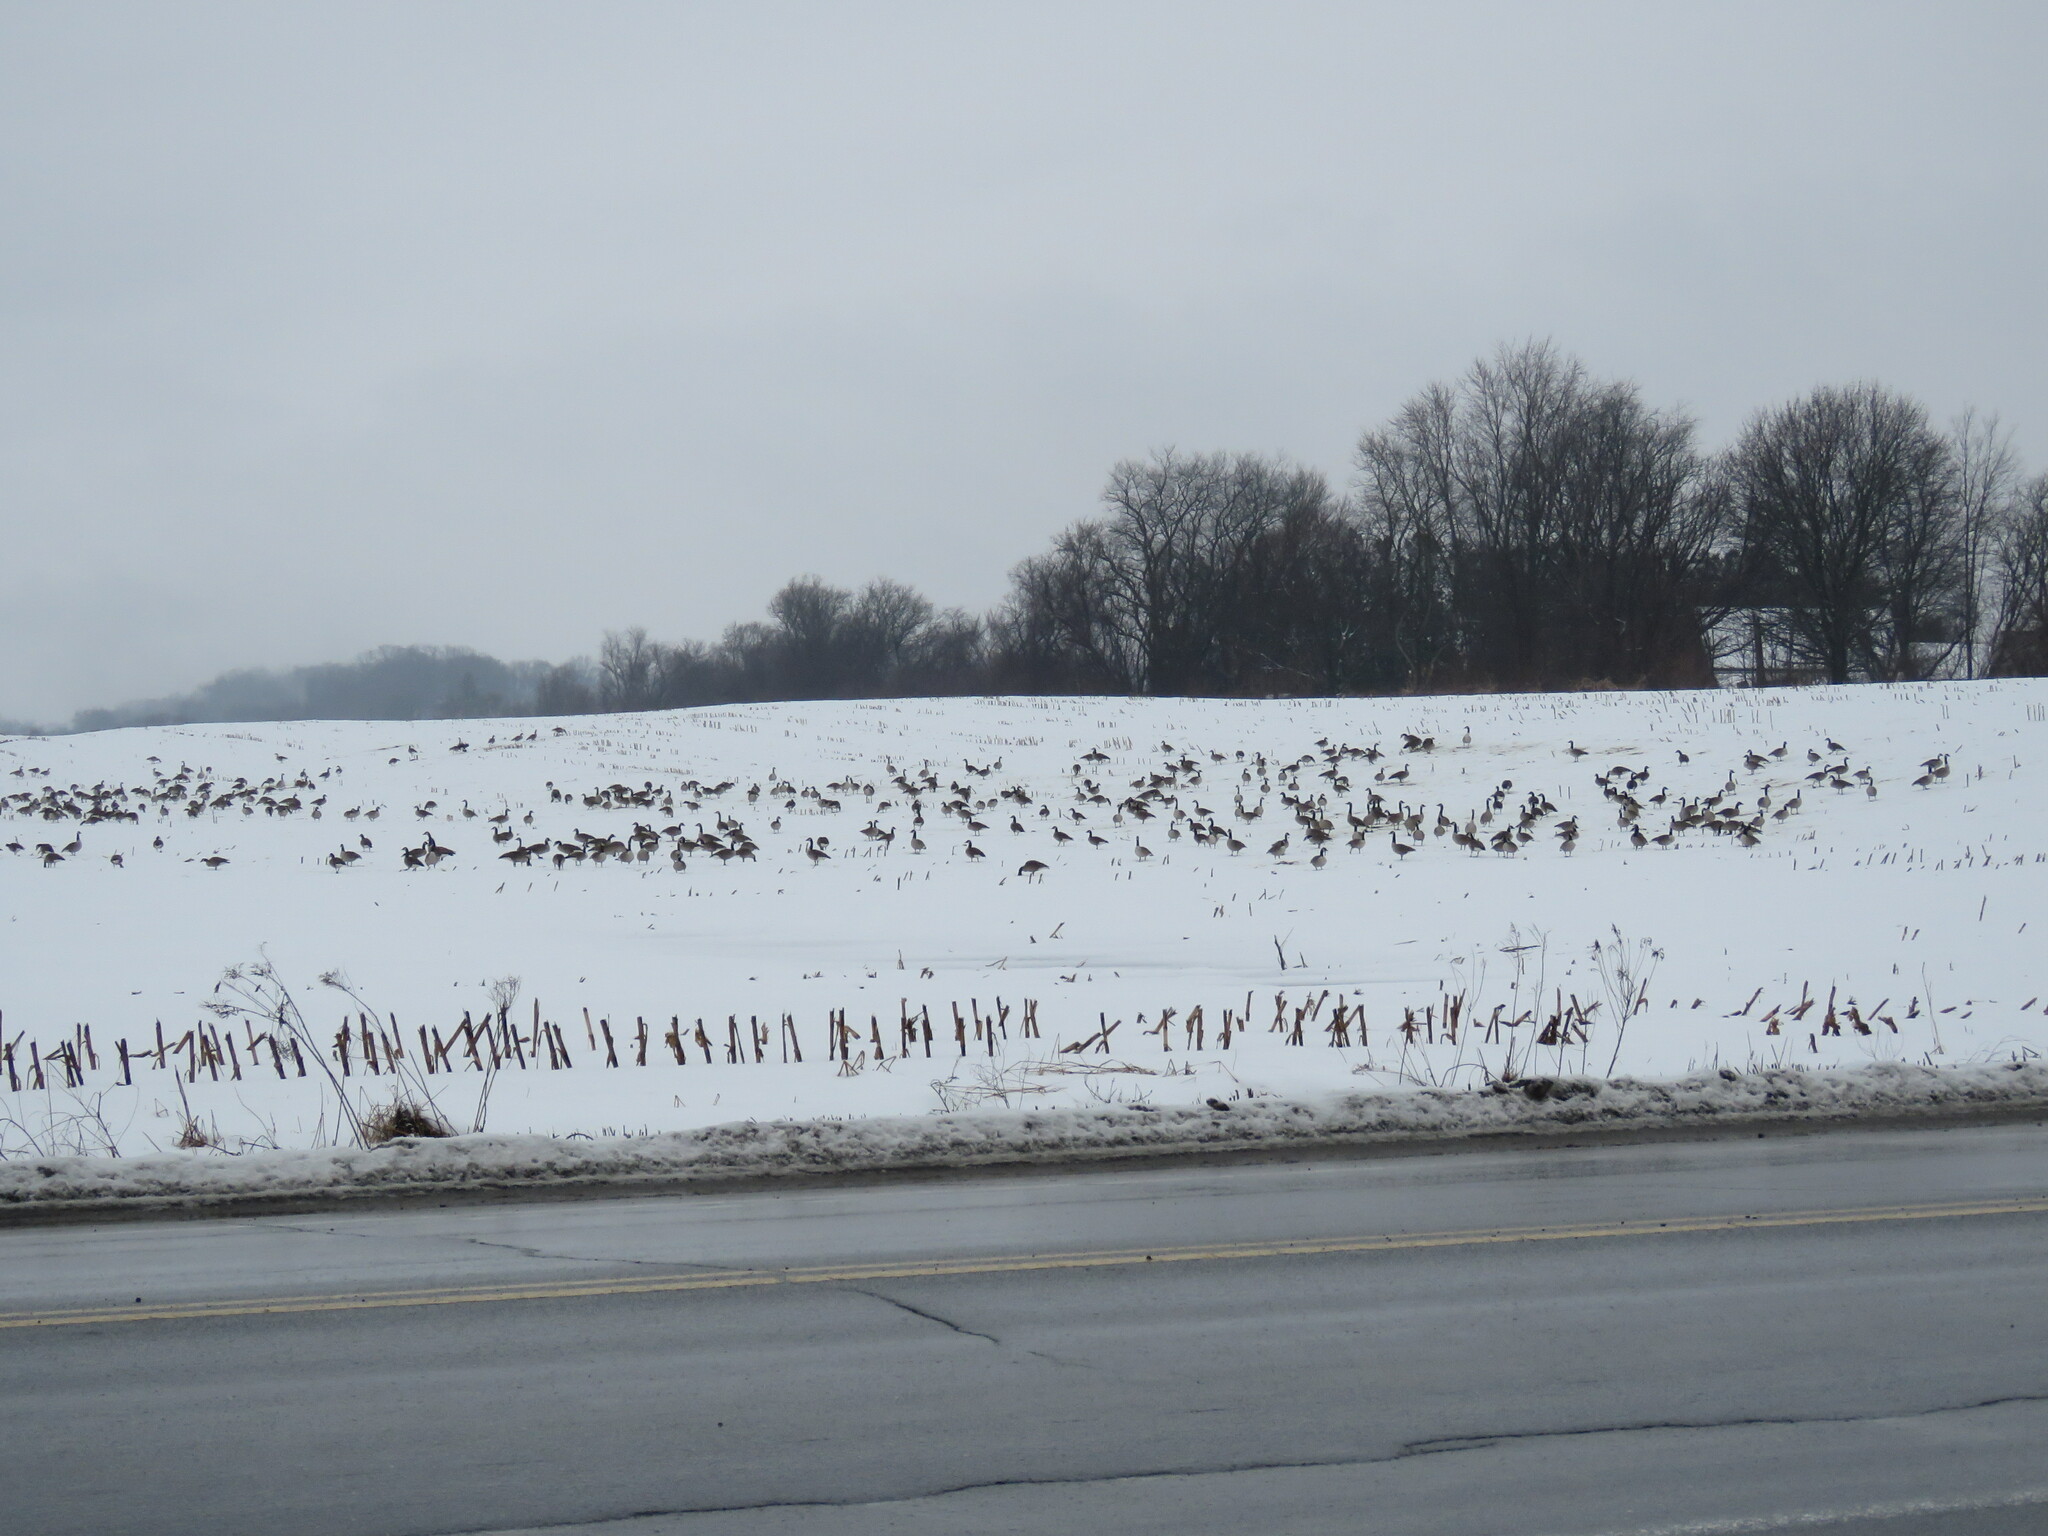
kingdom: Animalia
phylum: Chordata
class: Aves
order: Anseriformes
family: Anatidae
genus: Branta
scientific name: Branta canadensis
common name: Canada goose
